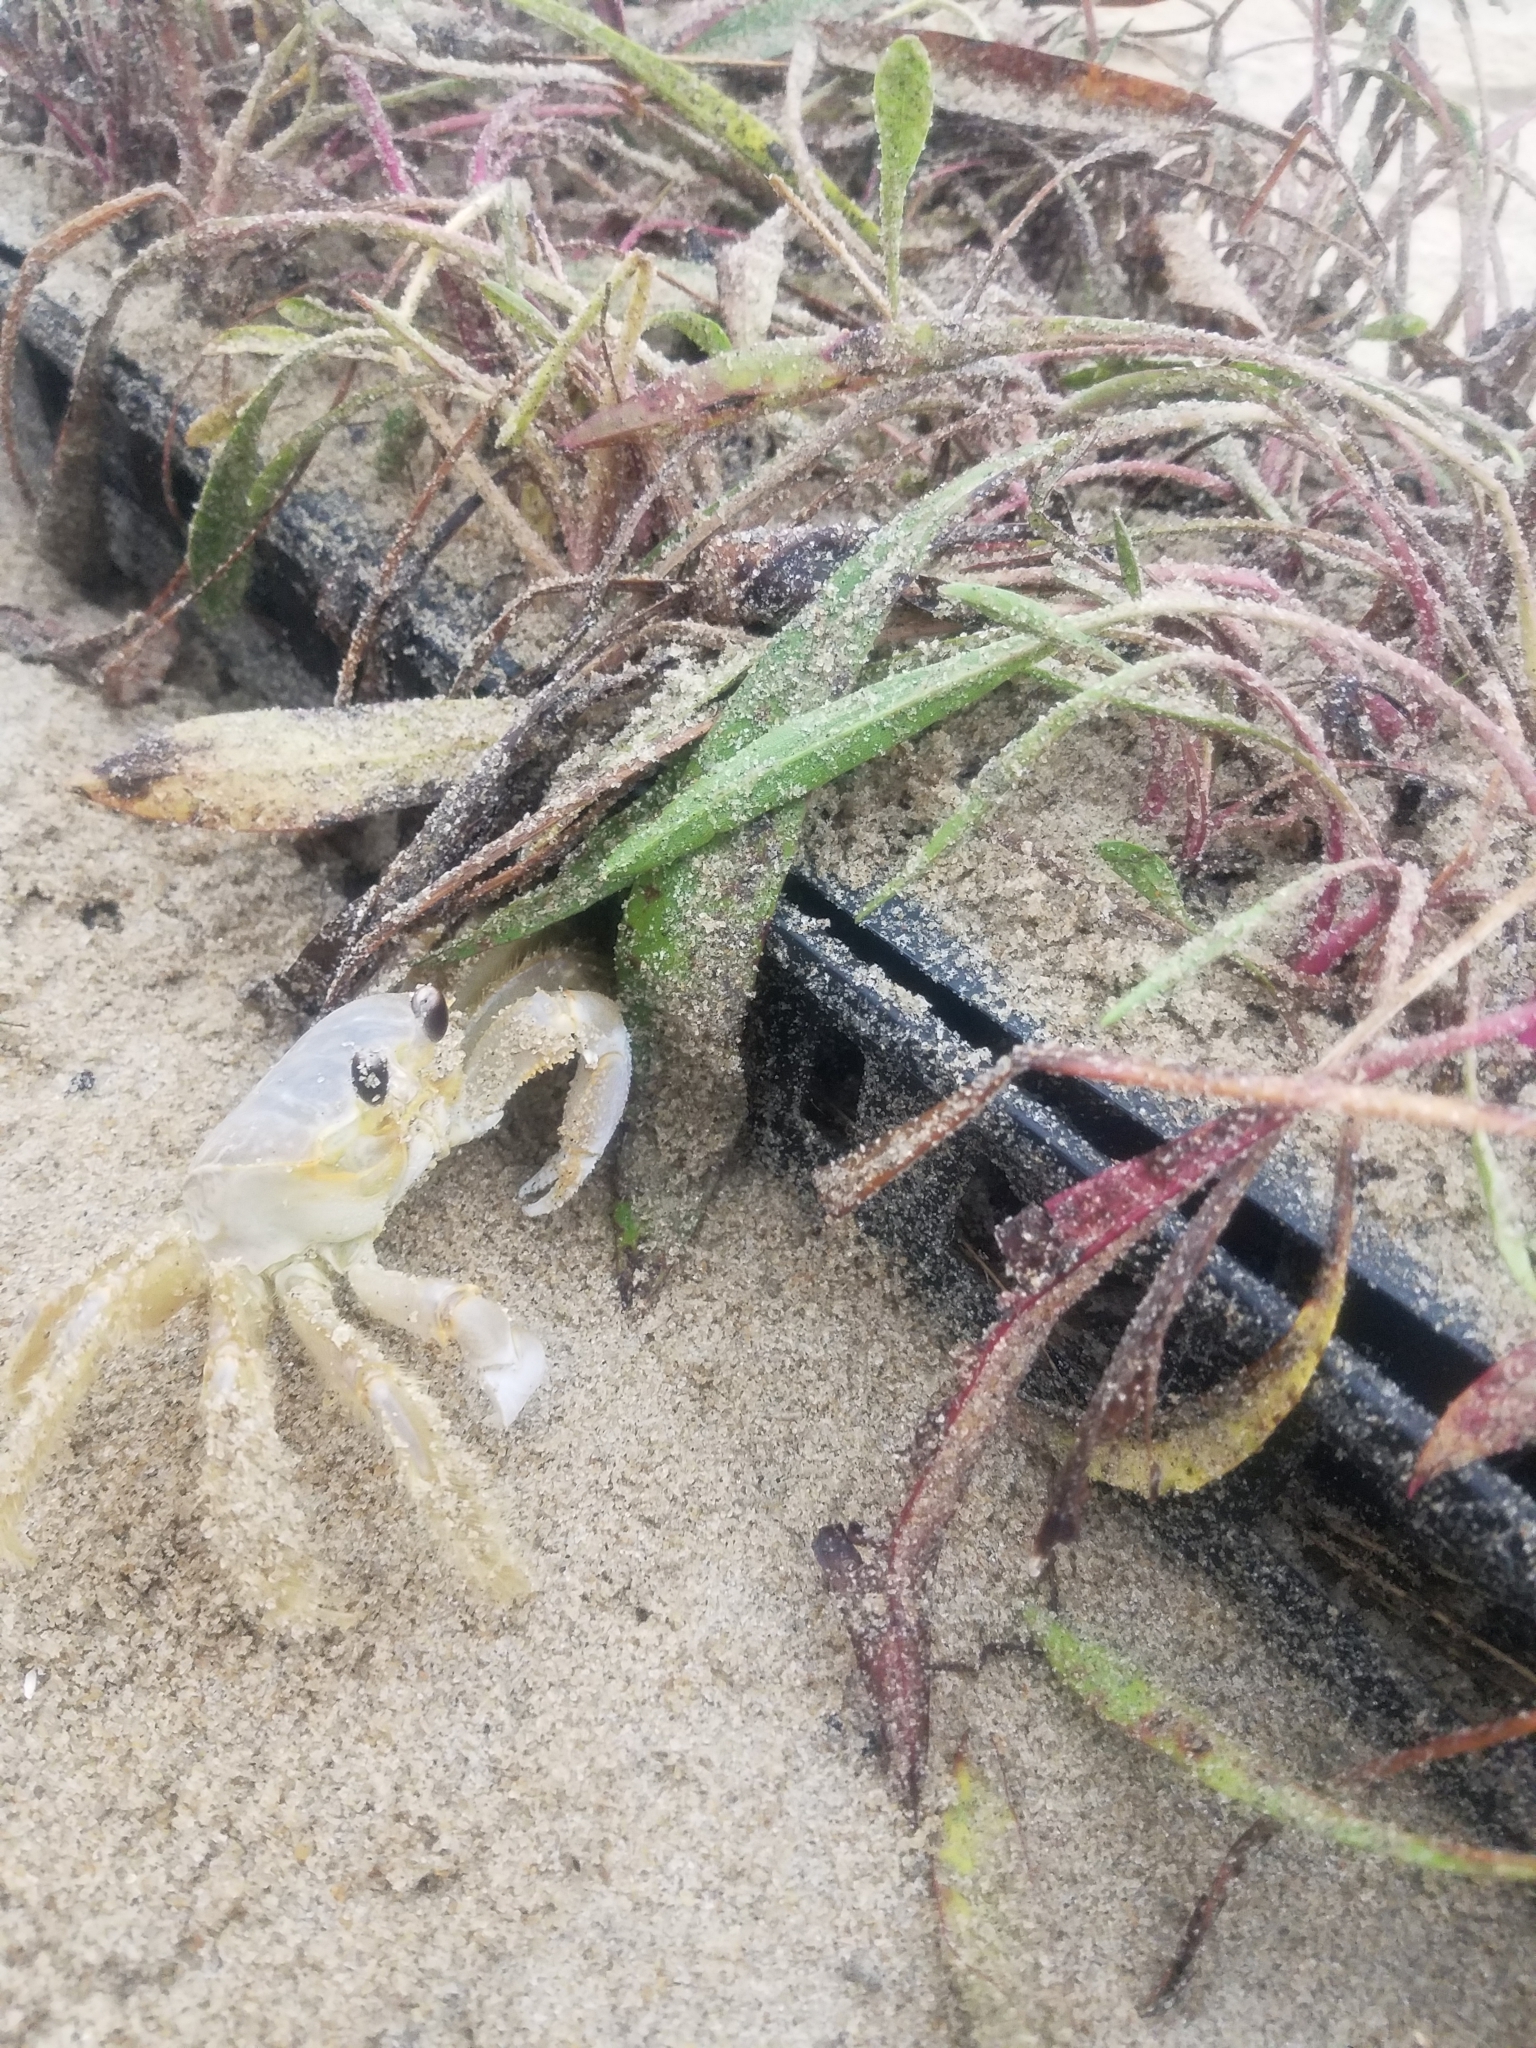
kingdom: Animalia
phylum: Arthropoda
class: Malacostraca
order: Decapoda
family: Ocypodidae
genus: Ocypode
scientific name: Ocypode quadrata
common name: Ghost crab
